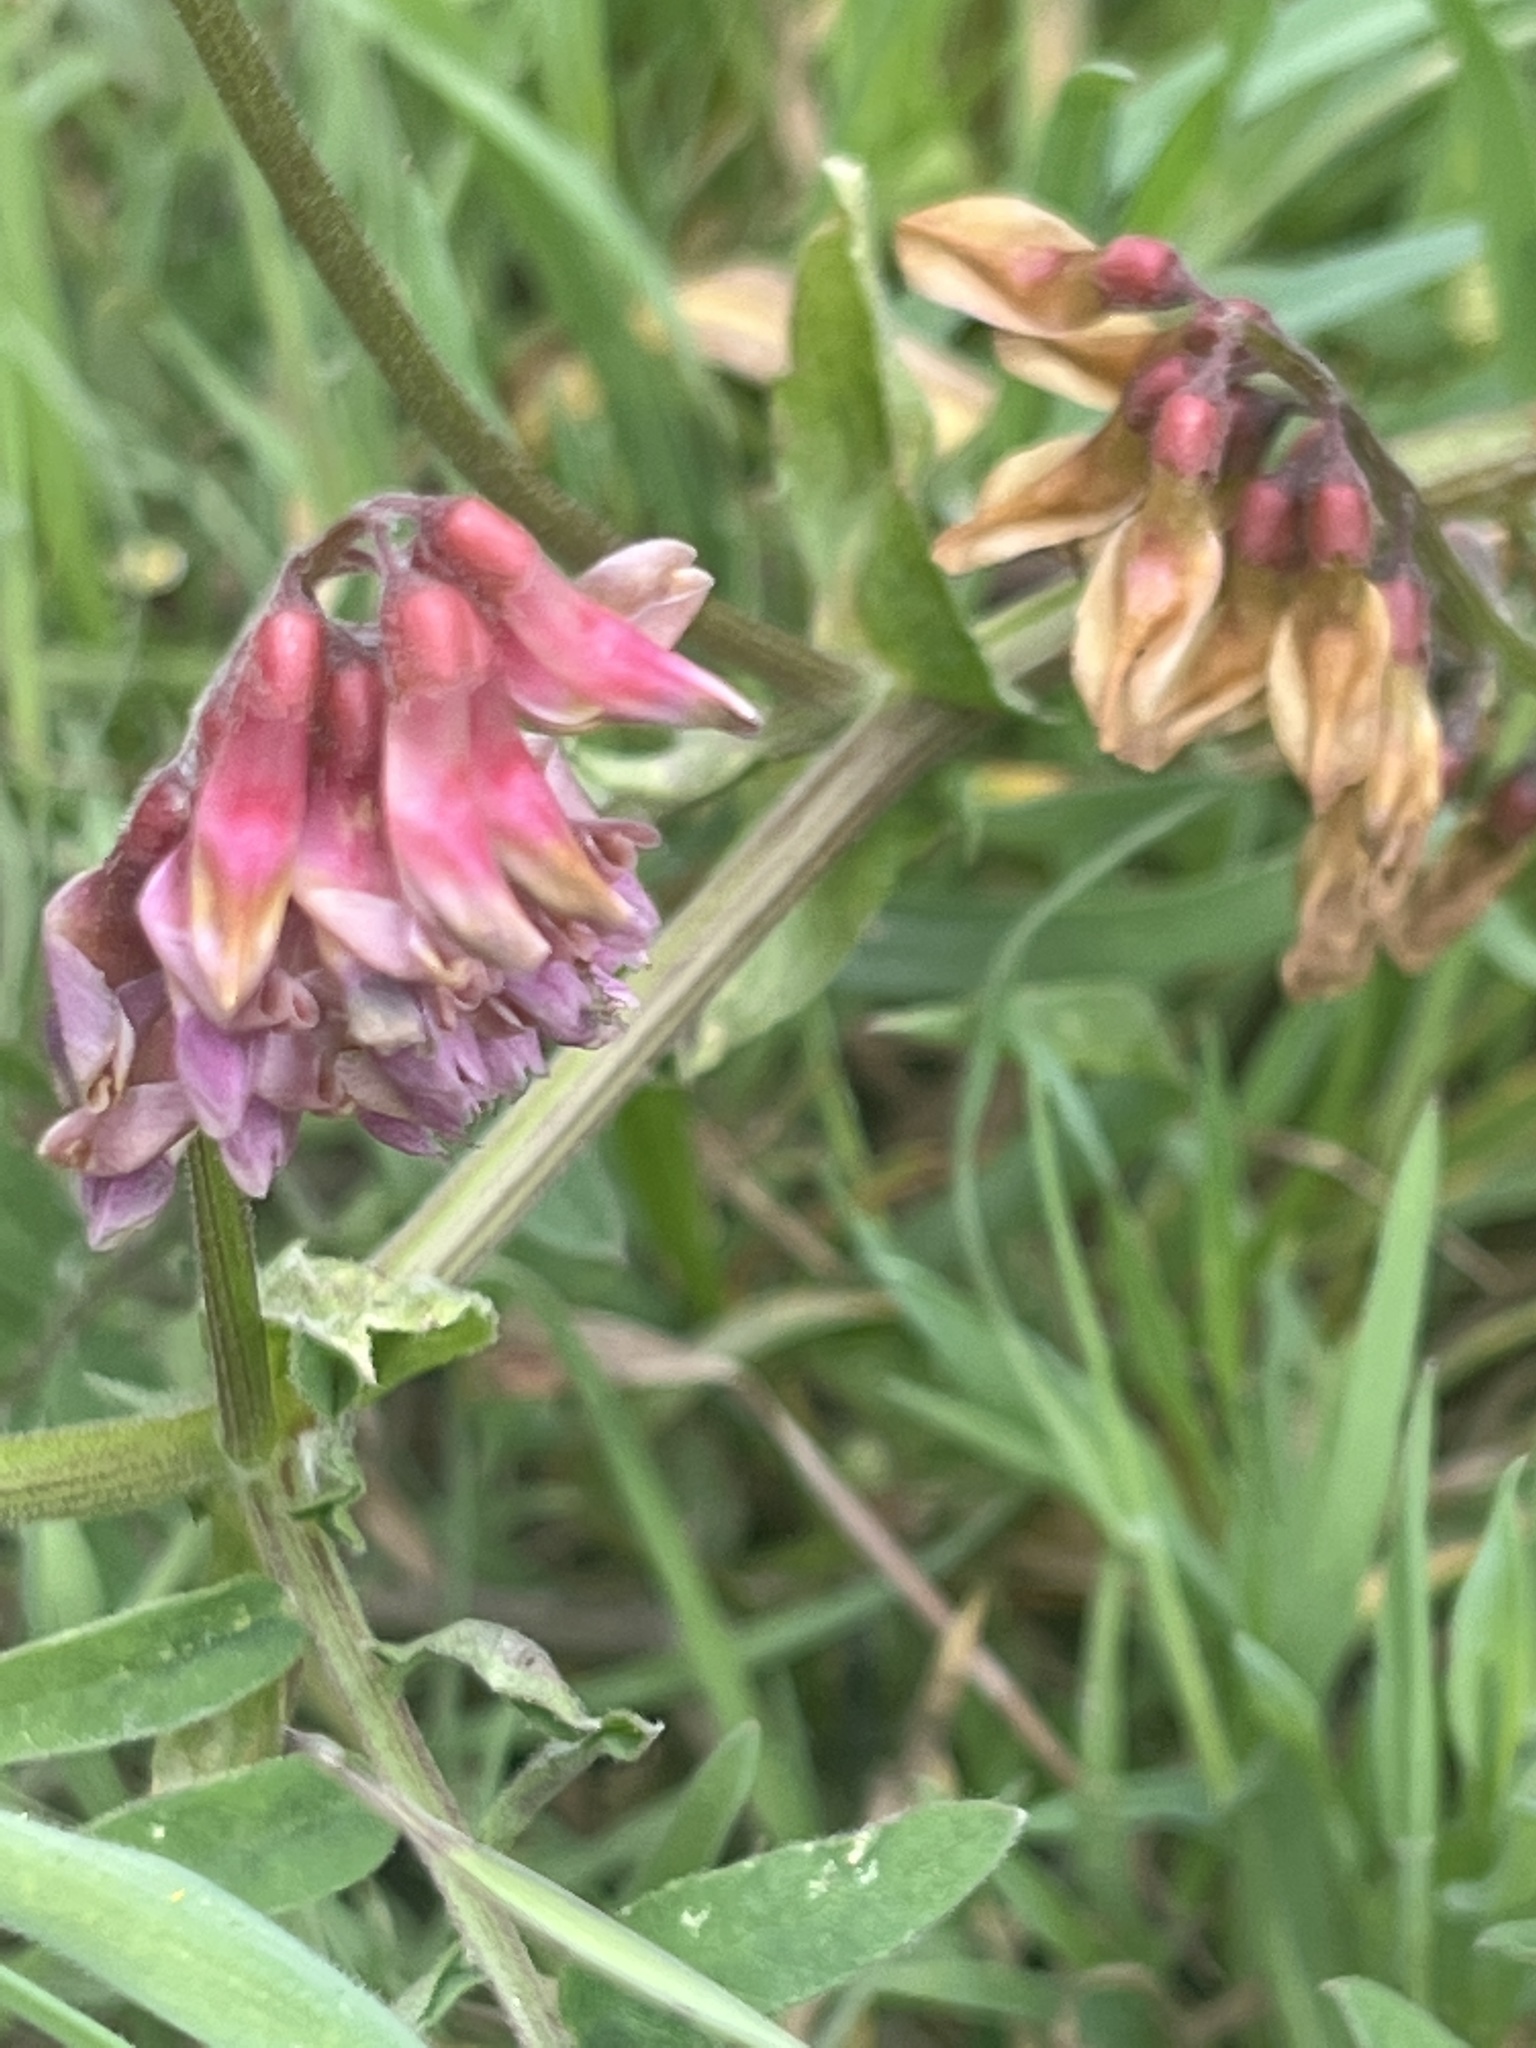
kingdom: Plantae
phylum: Tracheophyta
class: Magnoliopsida
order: Fabales
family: Fabaceae
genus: Vicia
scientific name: Vicia
